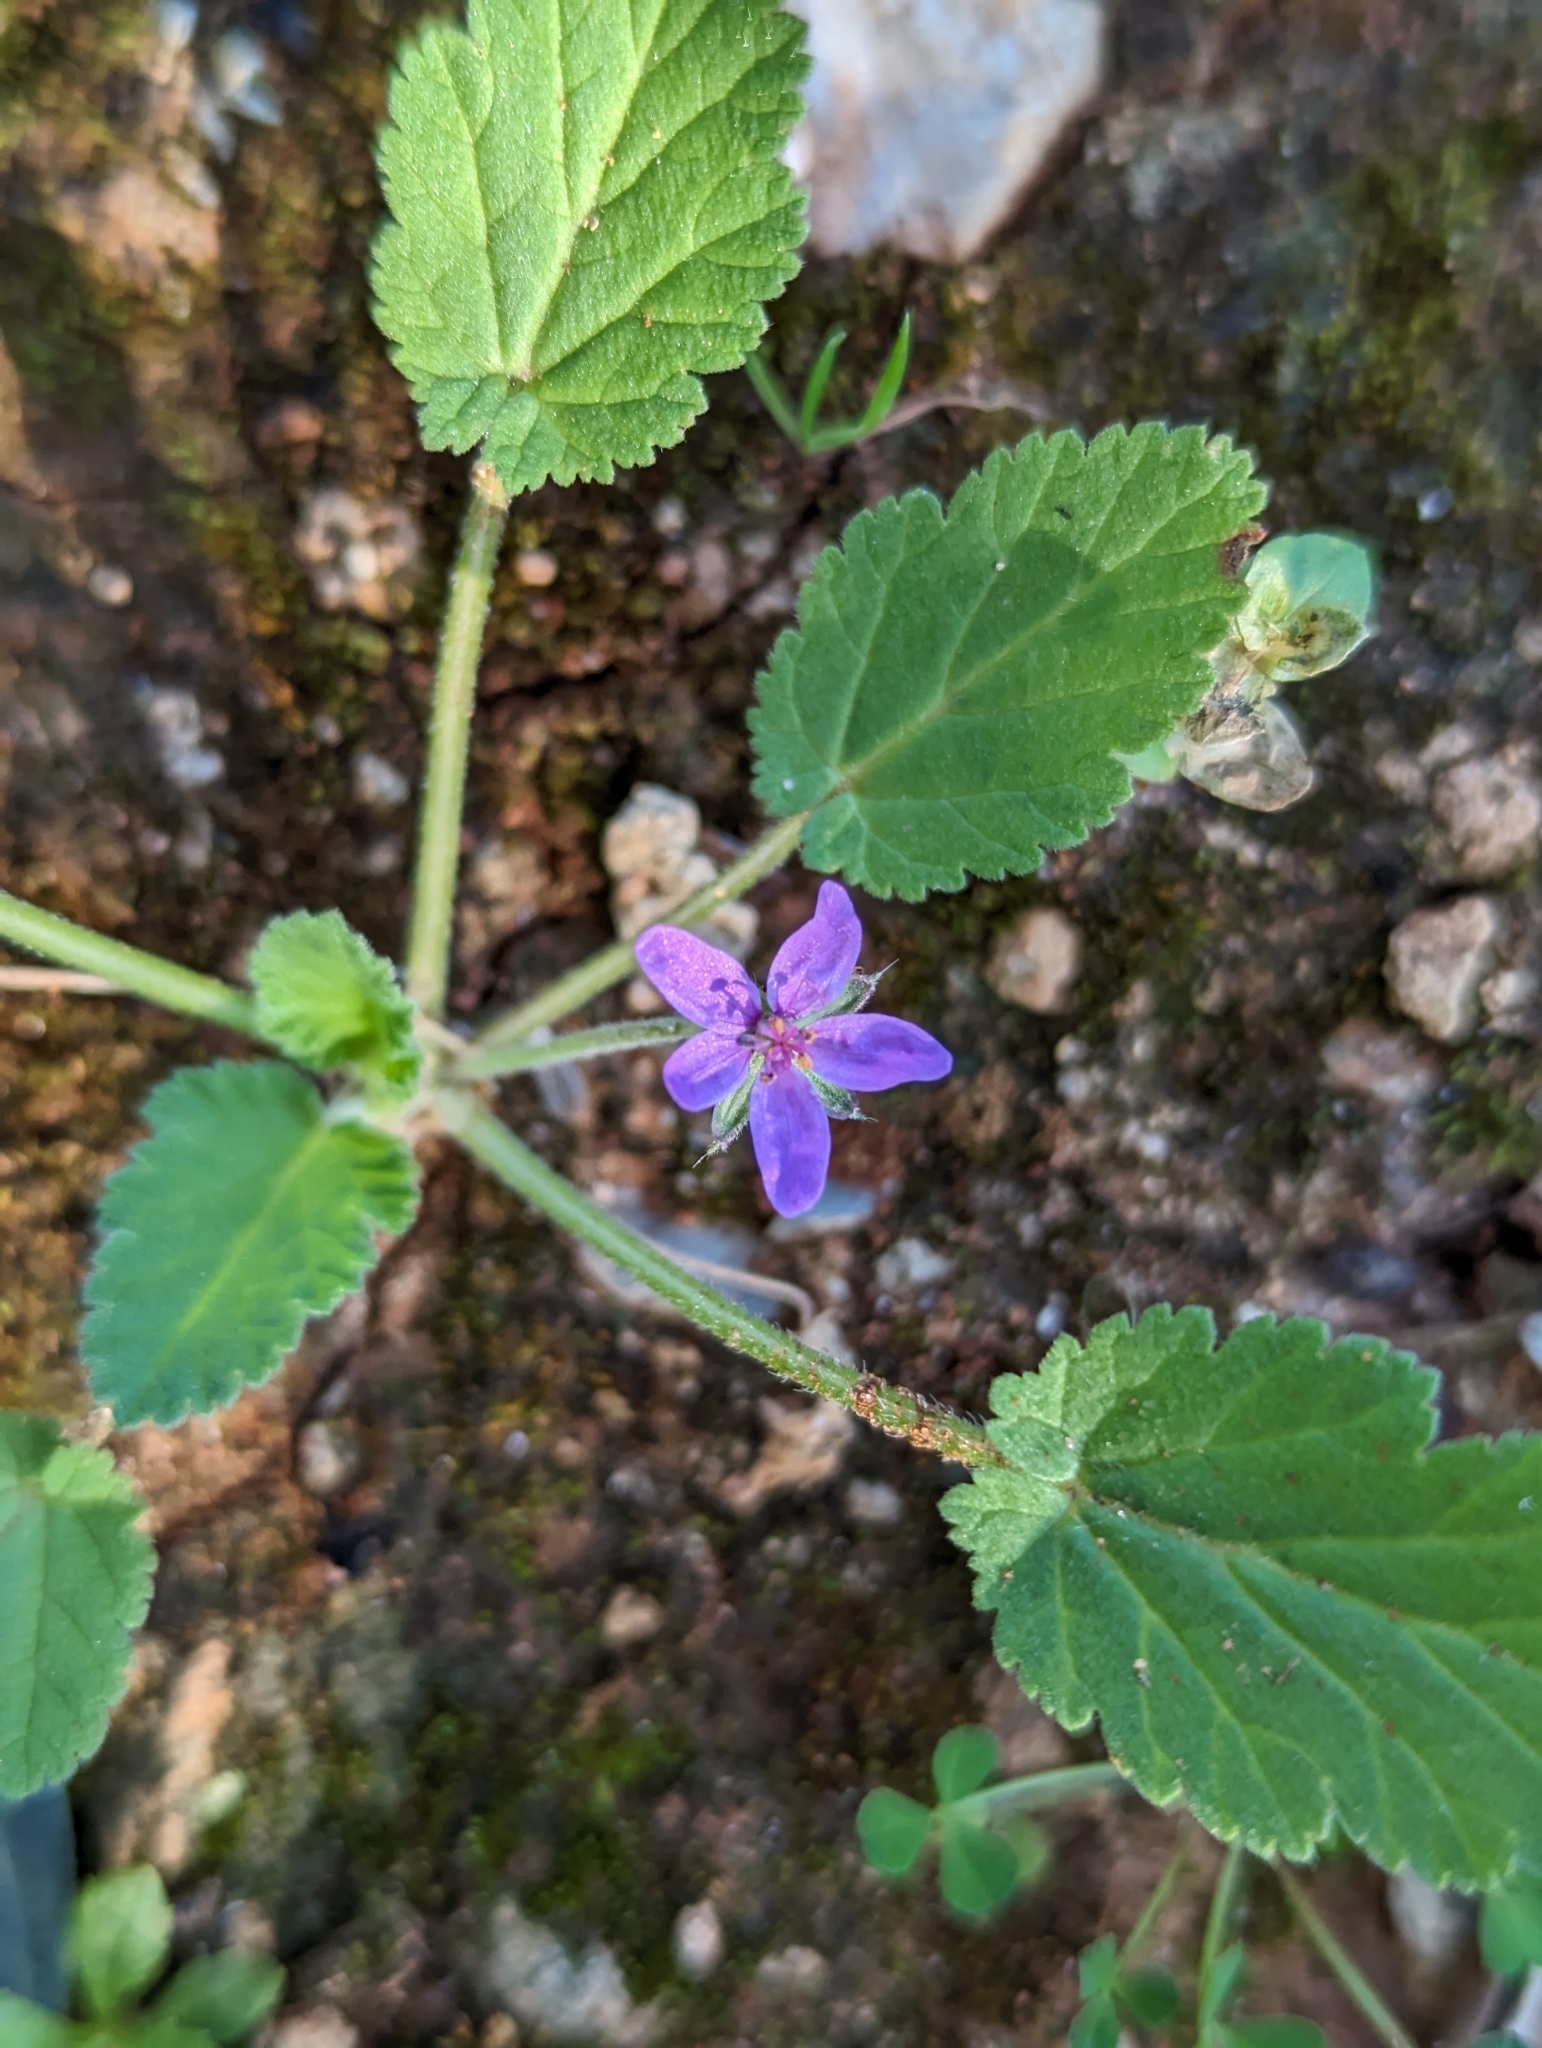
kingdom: Plantae
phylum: Tracheophyta
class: Magnoliopsida
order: Geraniales
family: Geraniaceae
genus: Erodium
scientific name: Erodium malacoides
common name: Soft stork's-bill
